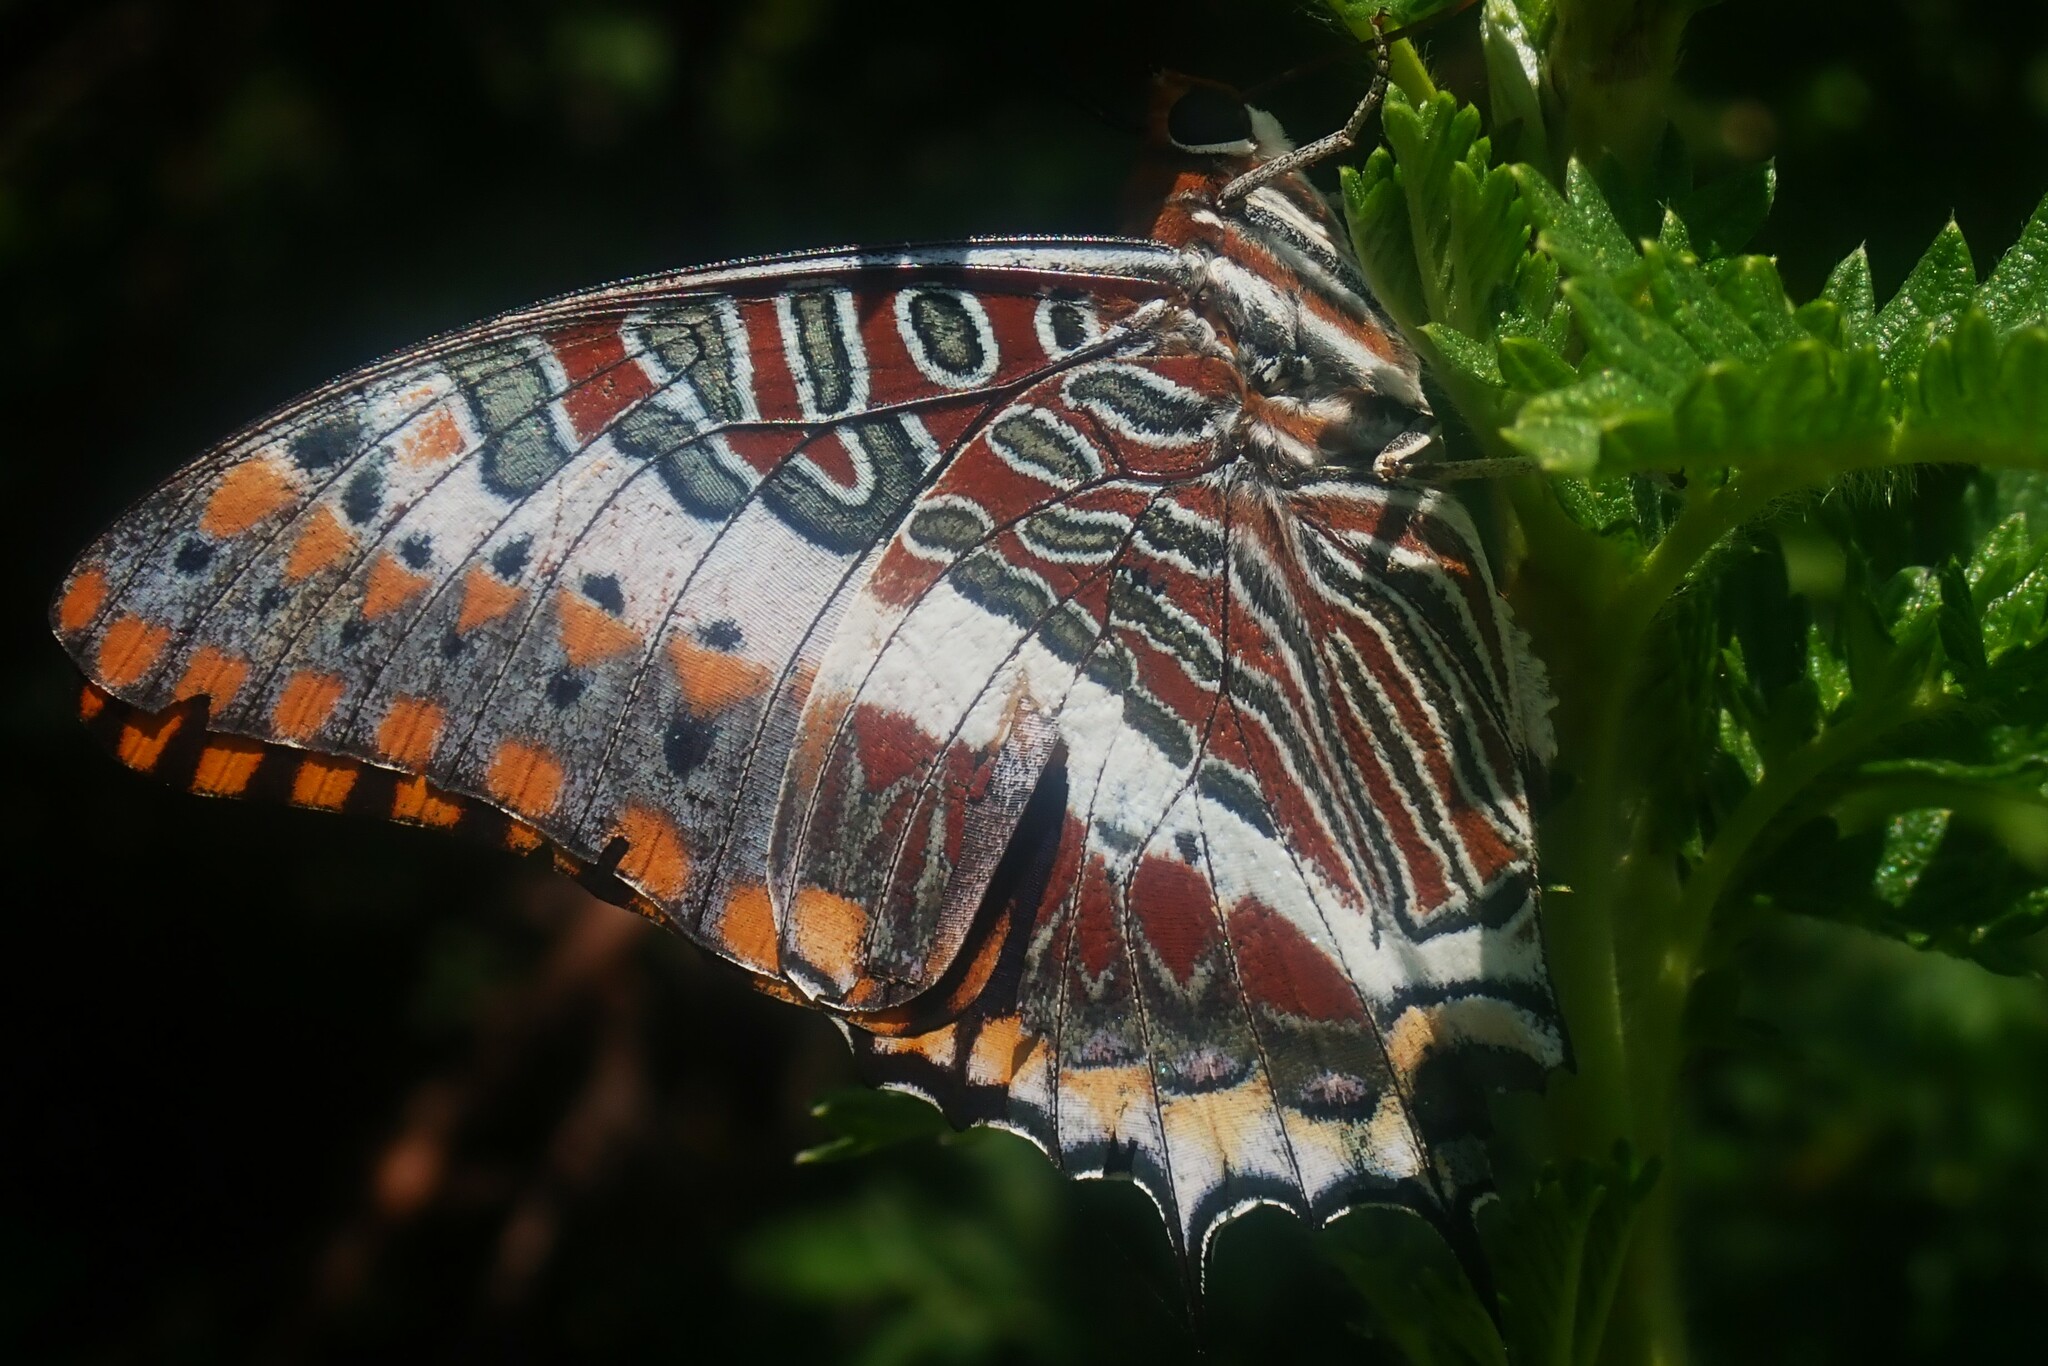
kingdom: Animalia
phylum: Arthropoda
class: Insecta
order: Lepidoptera
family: Nymphalidae
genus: Charaxes
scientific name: Charaxes jasius
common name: Two tailed pasha
